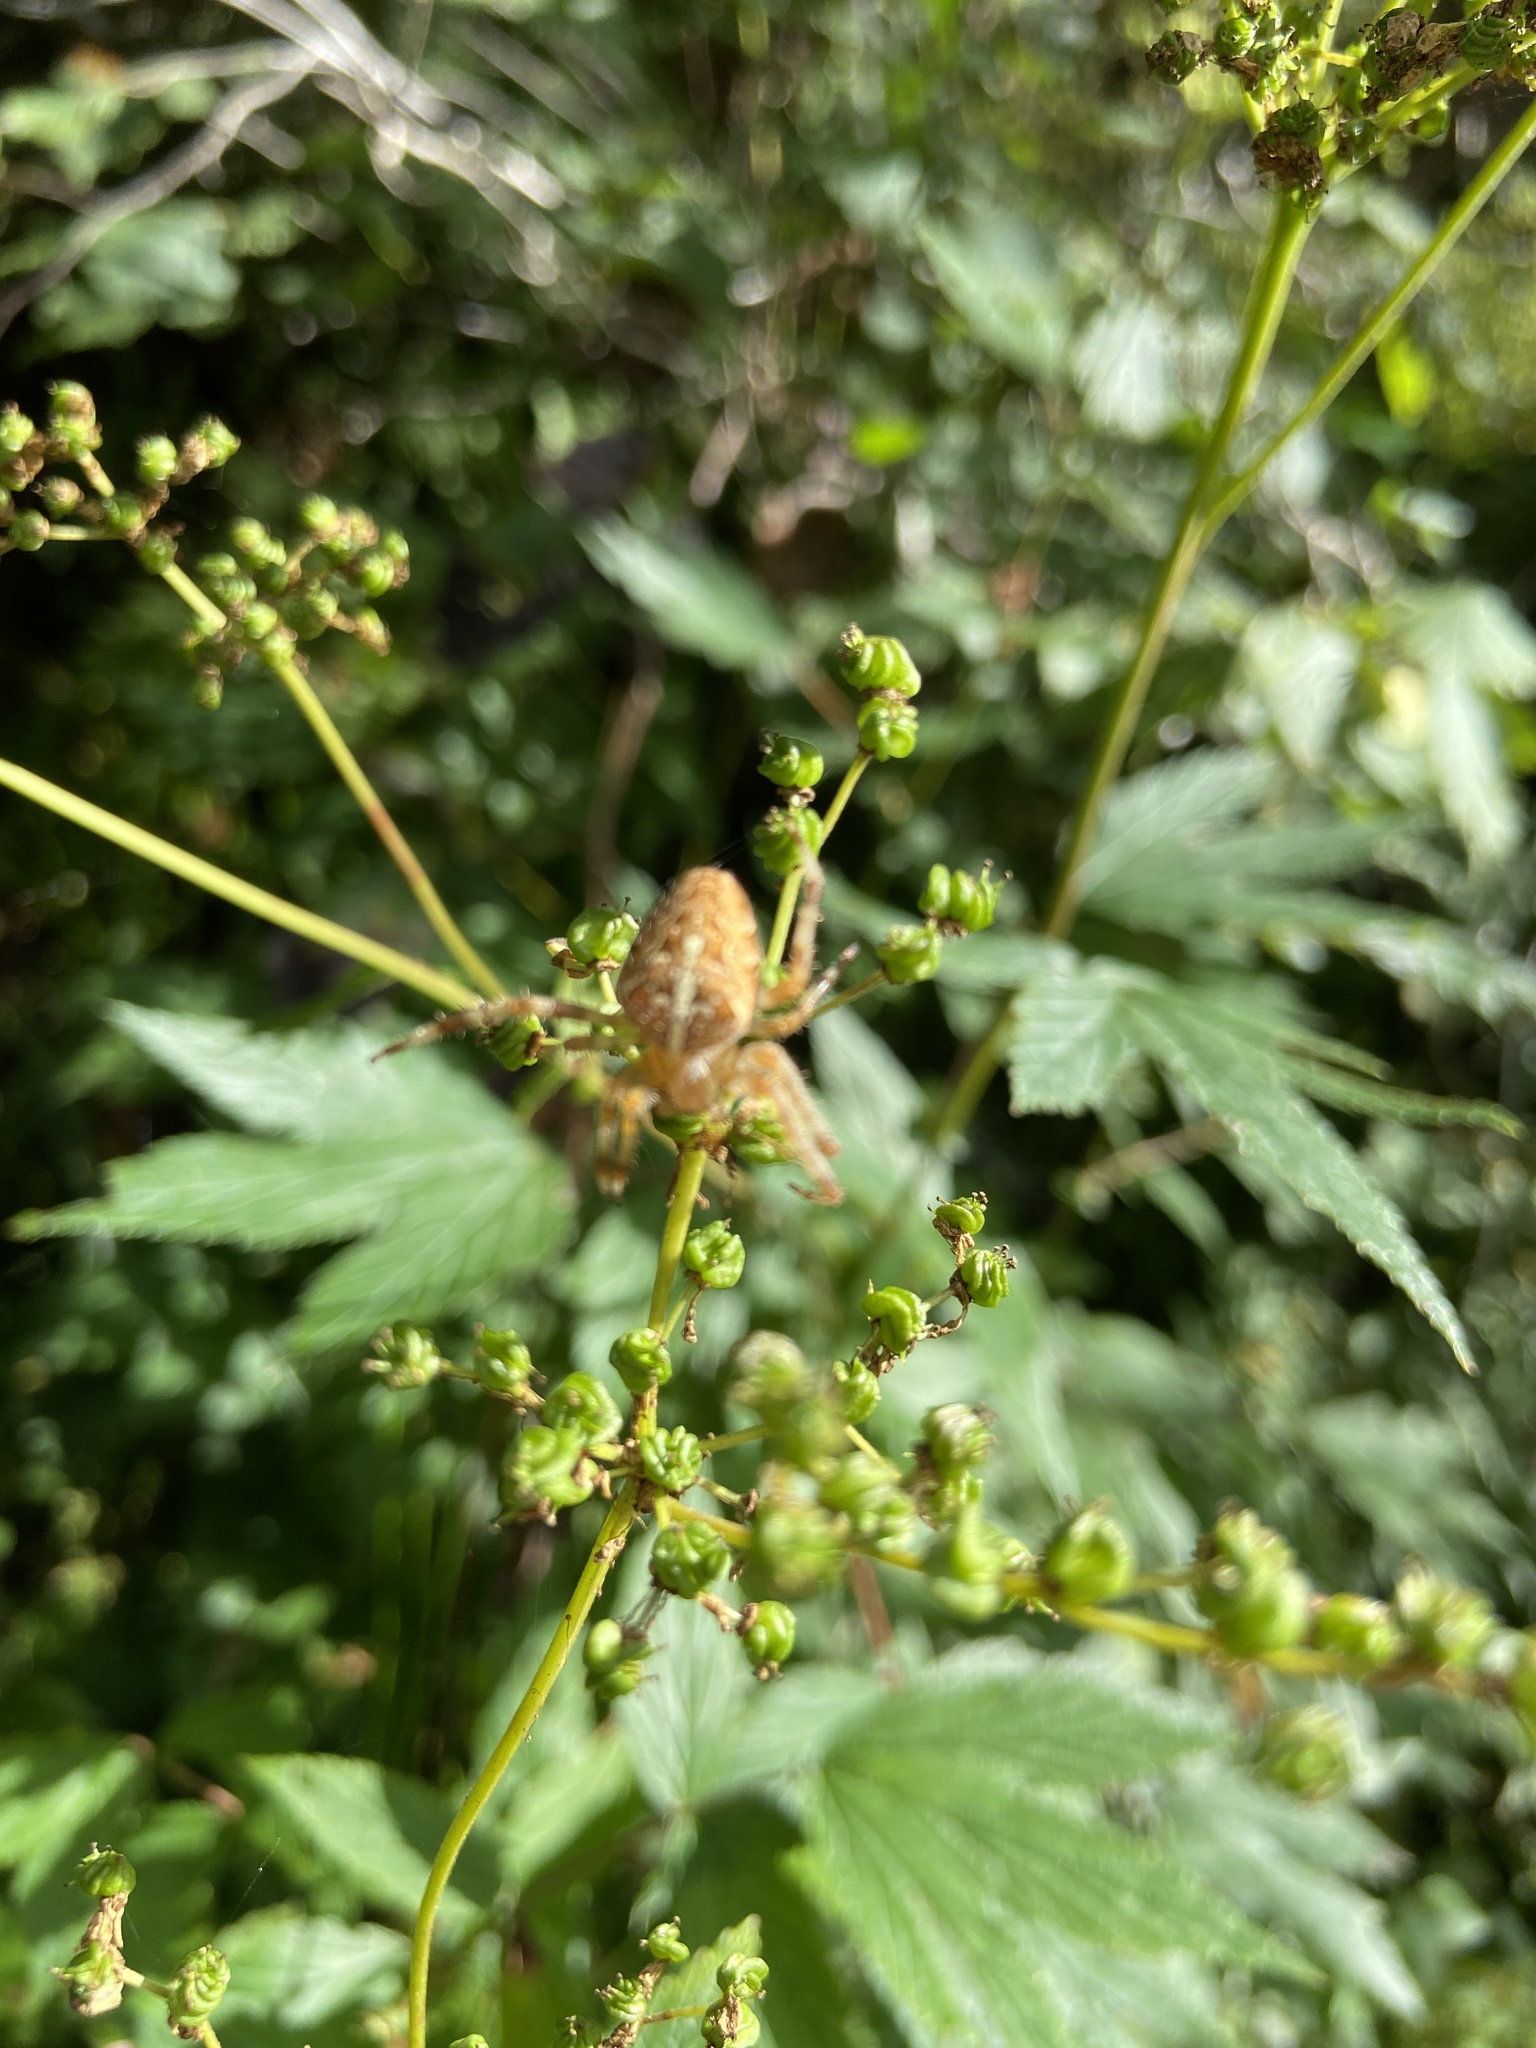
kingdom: Animalia
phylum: Arthropoda
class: Arachnida
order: Araneae
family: Araneidae
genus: Araneus
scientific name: Araneus diadematus
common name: Cross orbweaver
